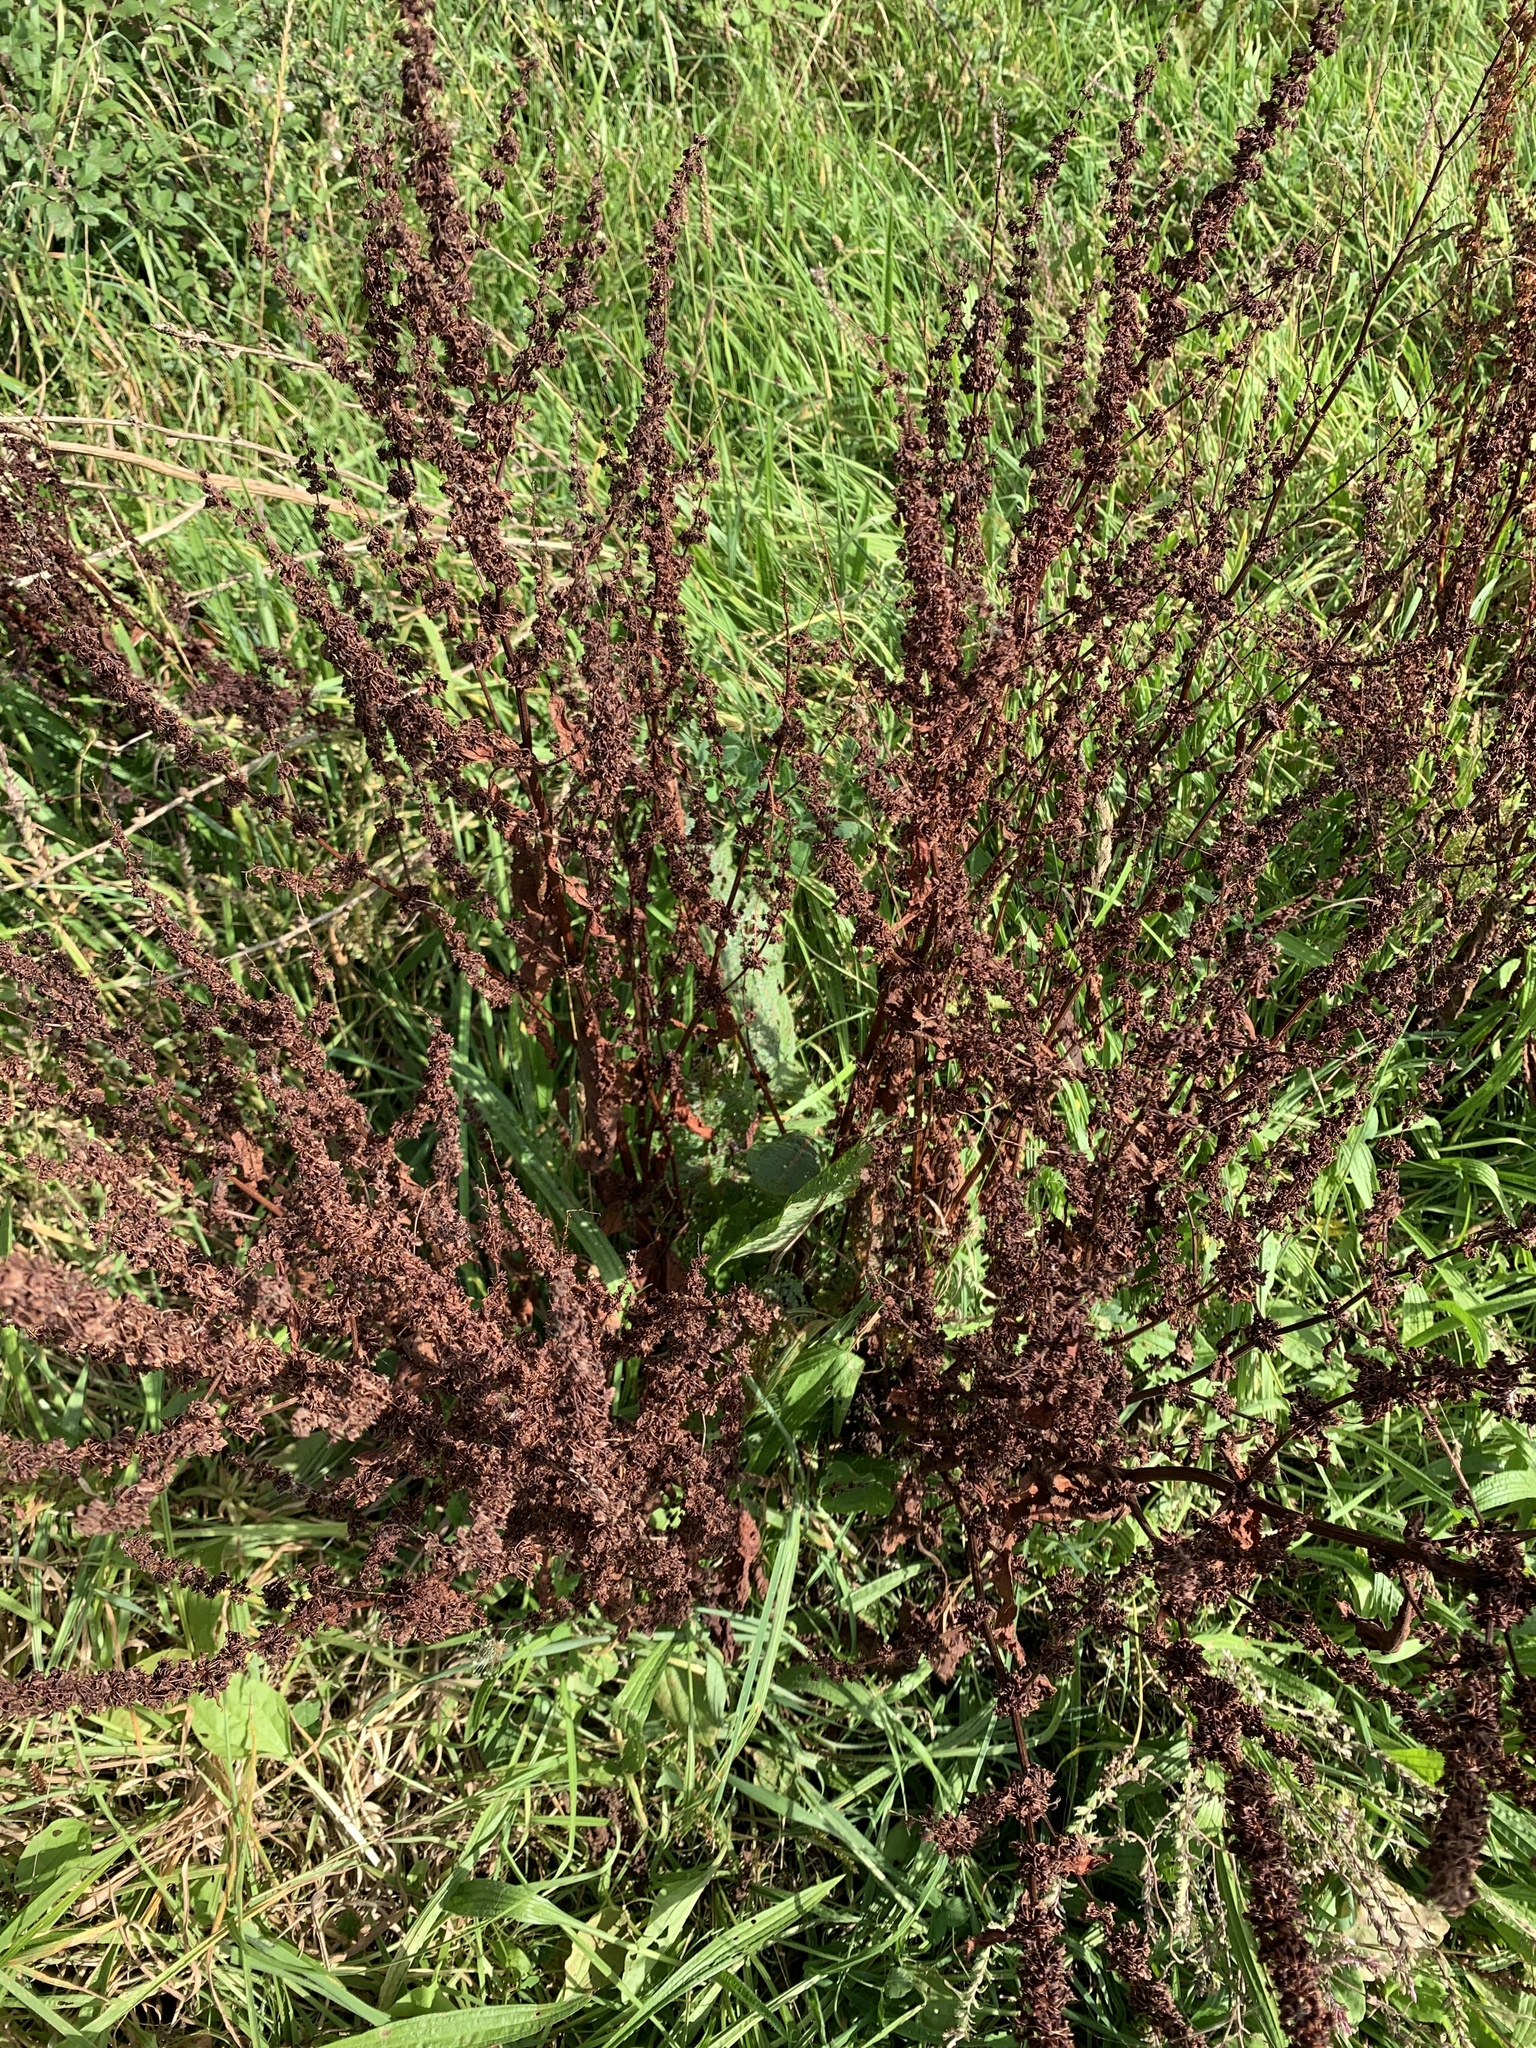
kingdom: Plantae
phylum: Tracheophyta
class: Magnoliopsida
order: Caryophyllales
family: Polygonaceae
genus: Rumex
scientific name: Rumex crispus
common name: Curled dock
